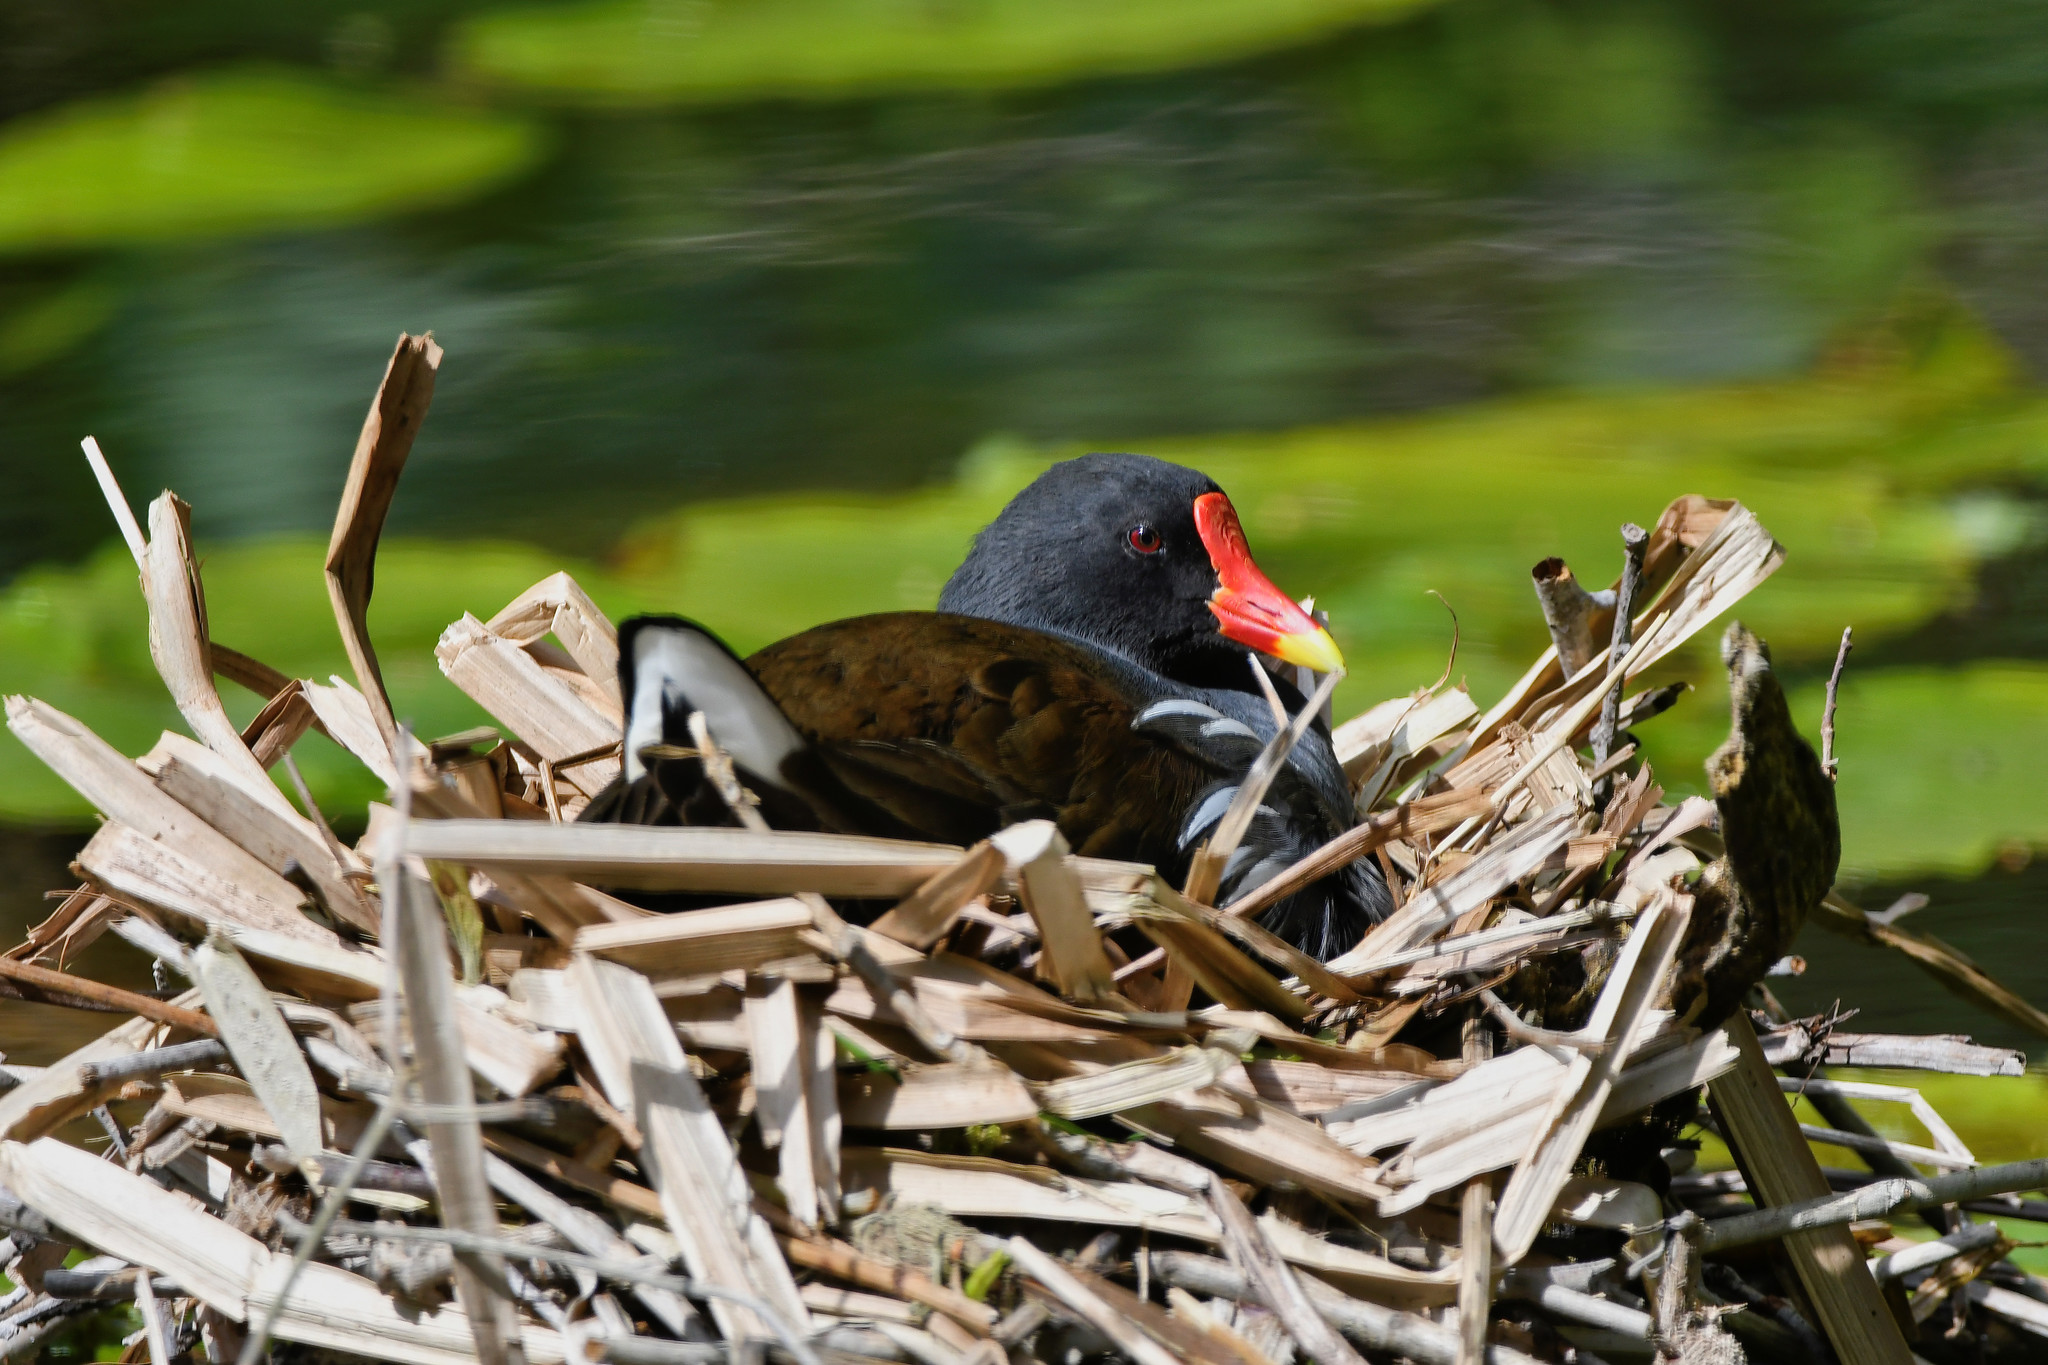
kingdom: Animalia
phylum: Chordata
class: Aves
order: Gruiformes
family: Rallidae
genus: Gallinula
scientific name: Gallinula chloropus
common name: Common moorhen
